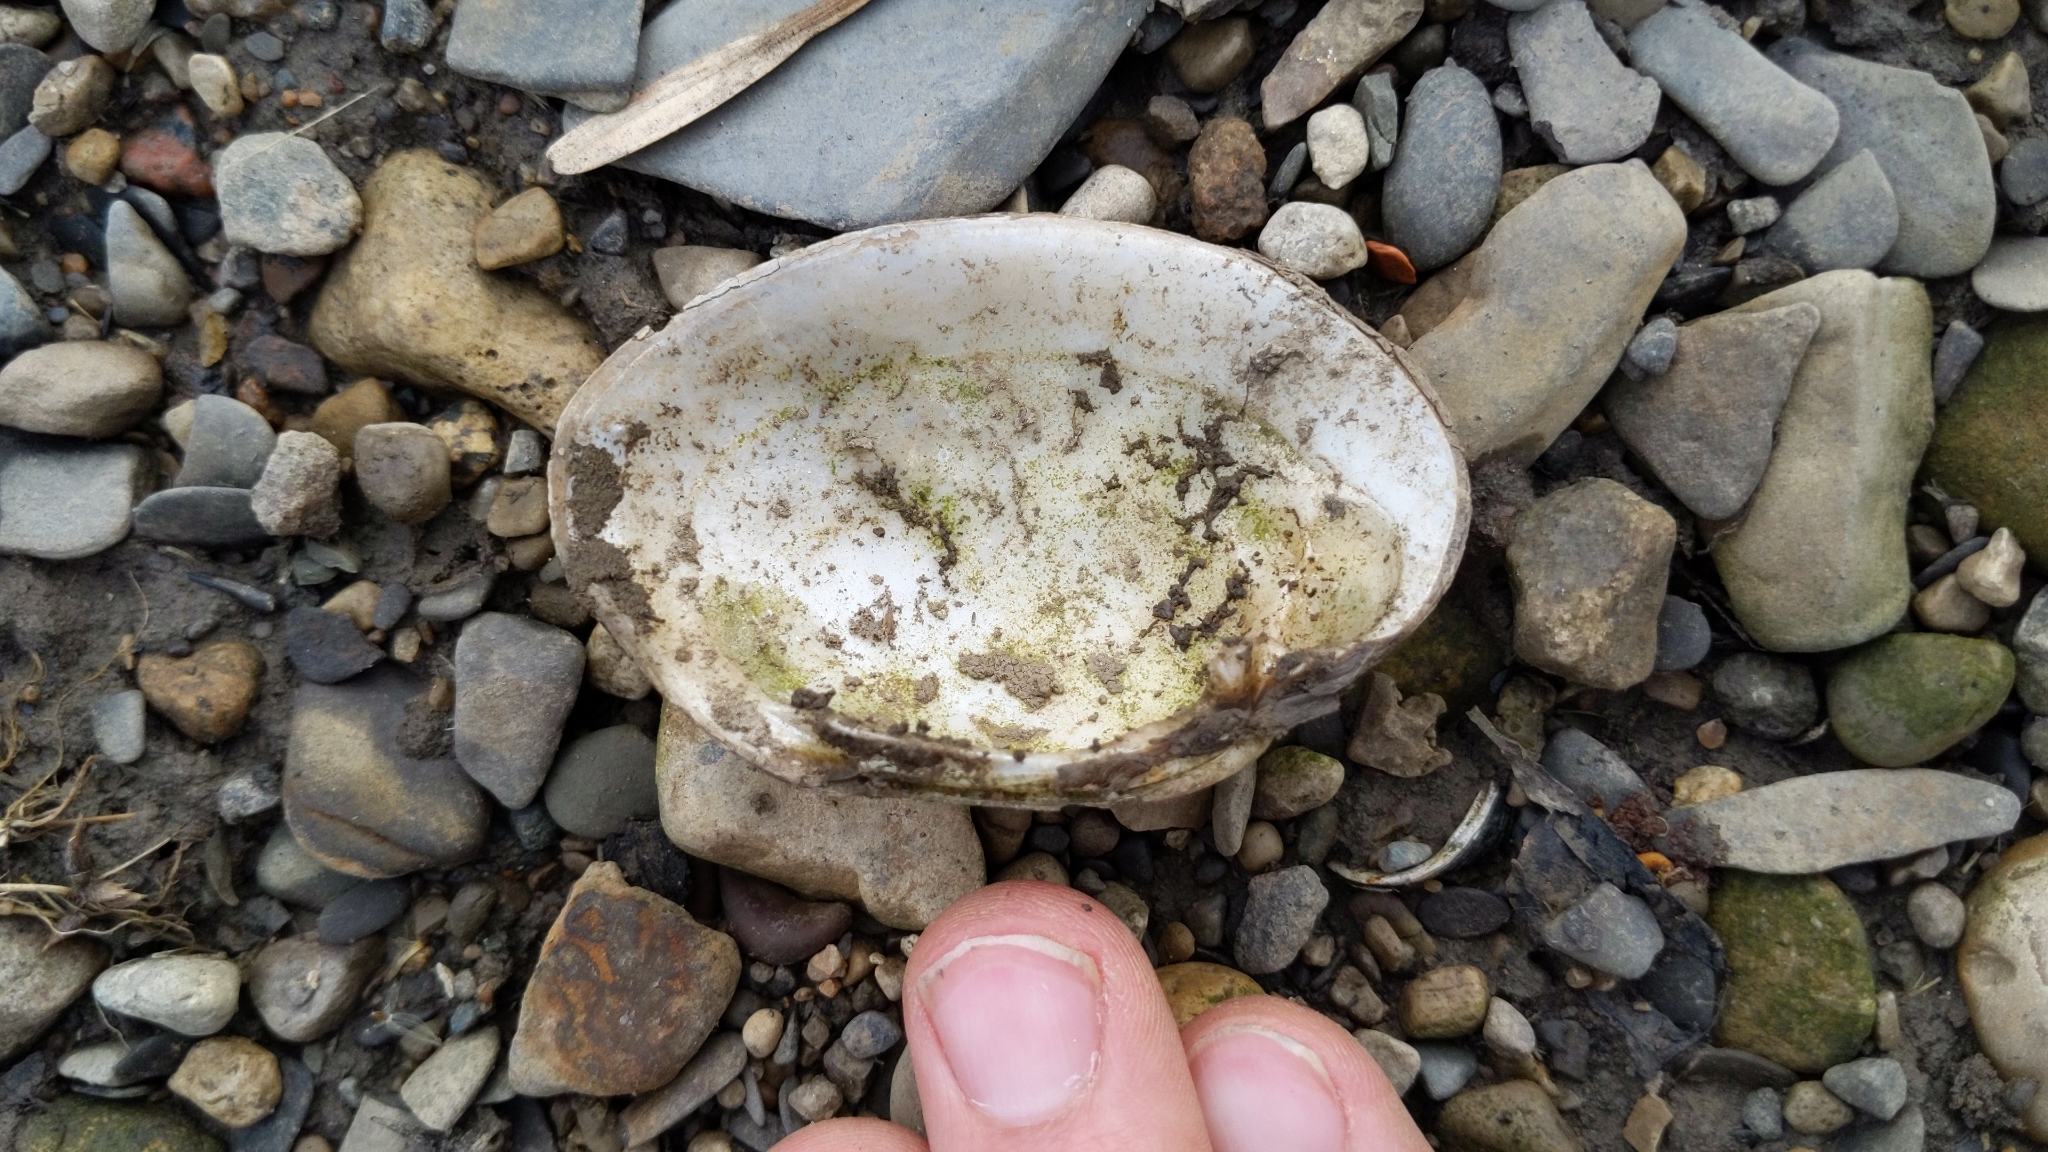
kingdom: Animalia
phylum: Mollusca
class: Bivalvia
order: Unionida
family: Unionidae
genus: Lampsilis
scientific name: Lampsilis fasciola
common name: Wavyrayed lampmussel
